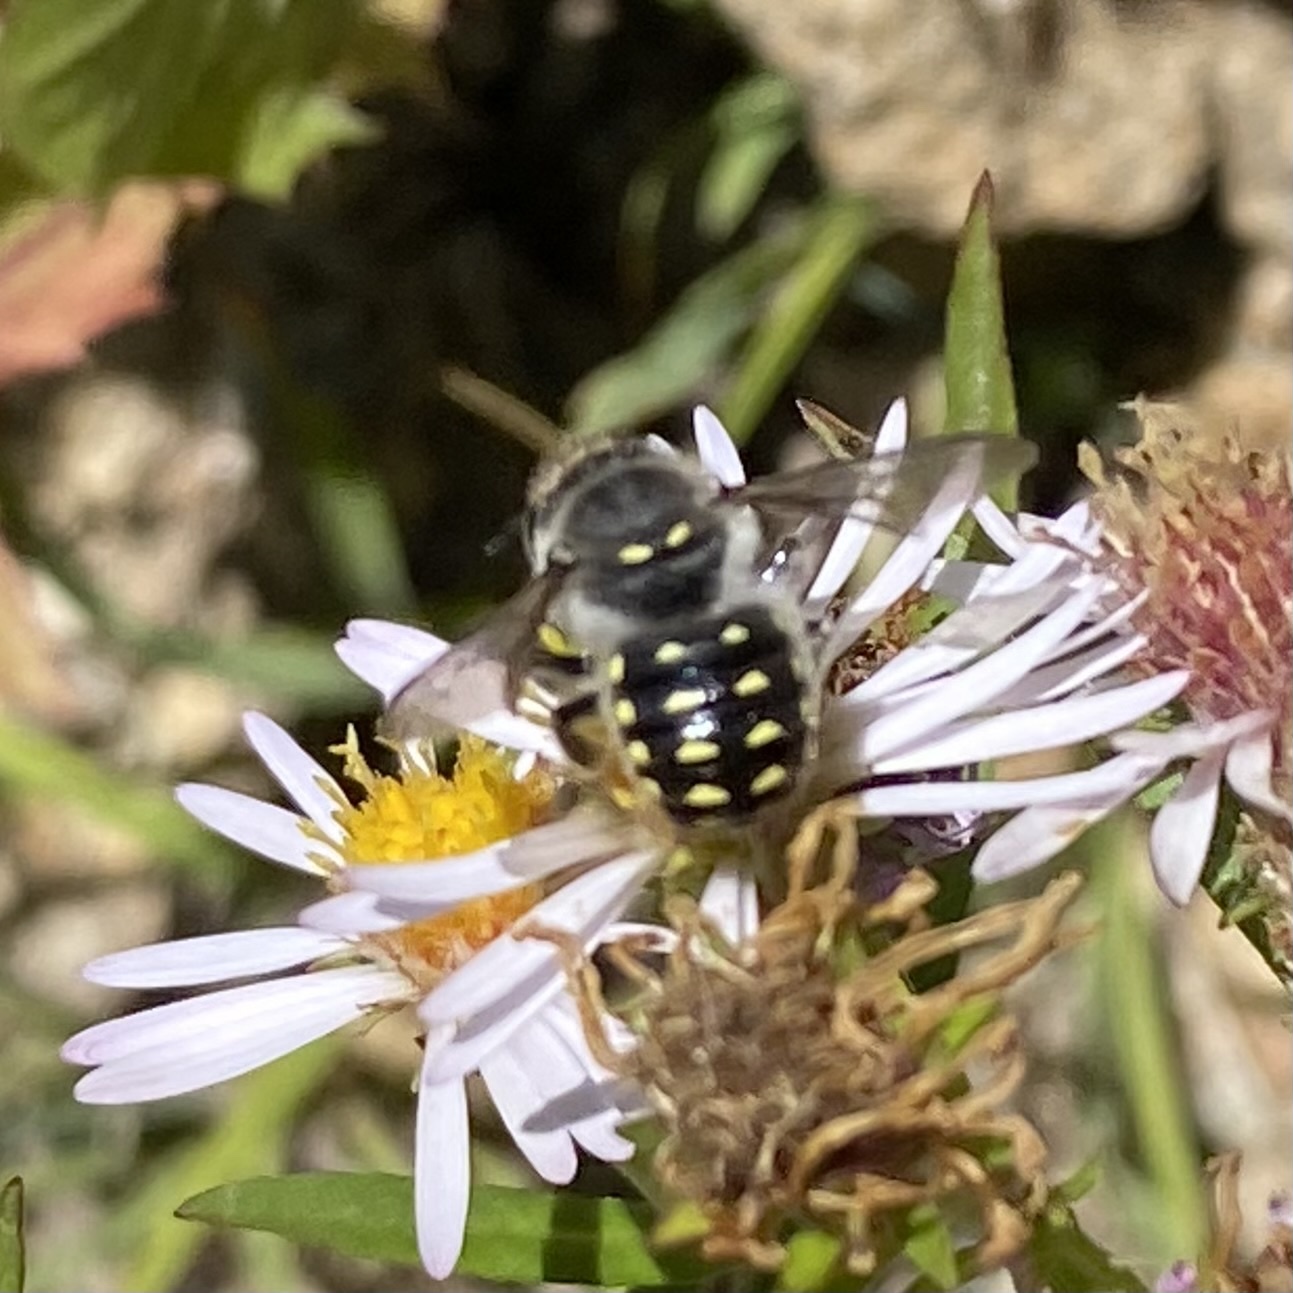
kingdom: Animalia
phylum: Arthropoda
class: Insecta
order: Hymenoptera
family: Megachilidae
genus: Anthidium
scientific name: Anthidium maculosum
